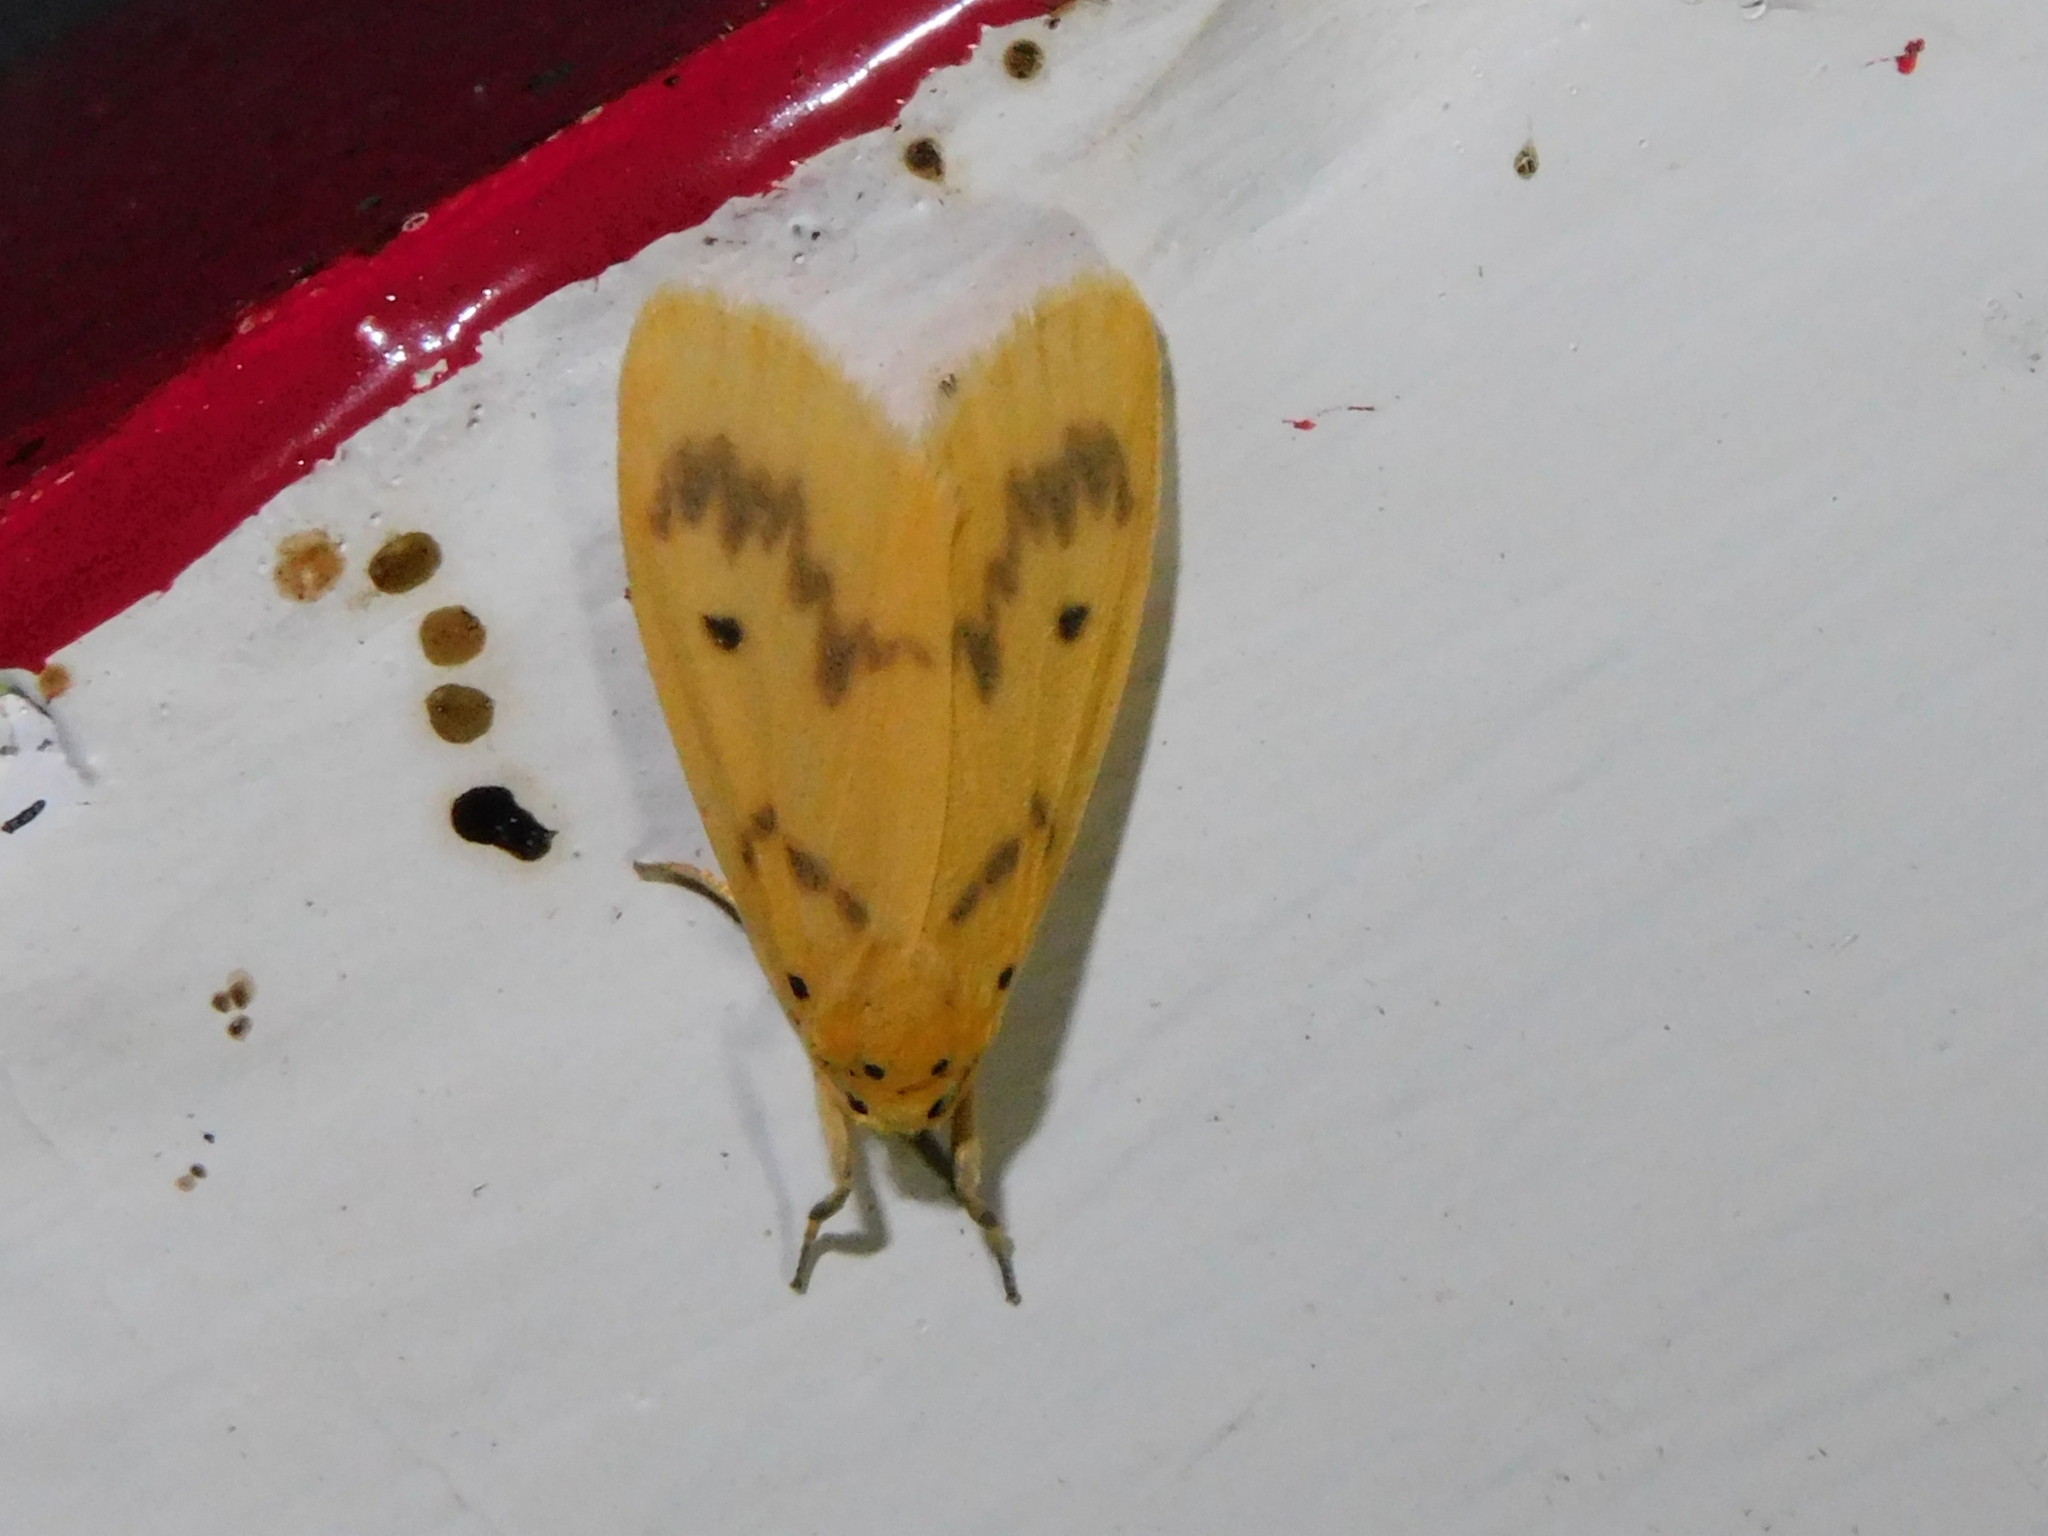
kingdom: Animalia
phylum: Arthropoda
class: Insecta
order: Lepidoptera
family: Erebidae
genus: Miltochrista
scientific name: Miltochrista undulata
